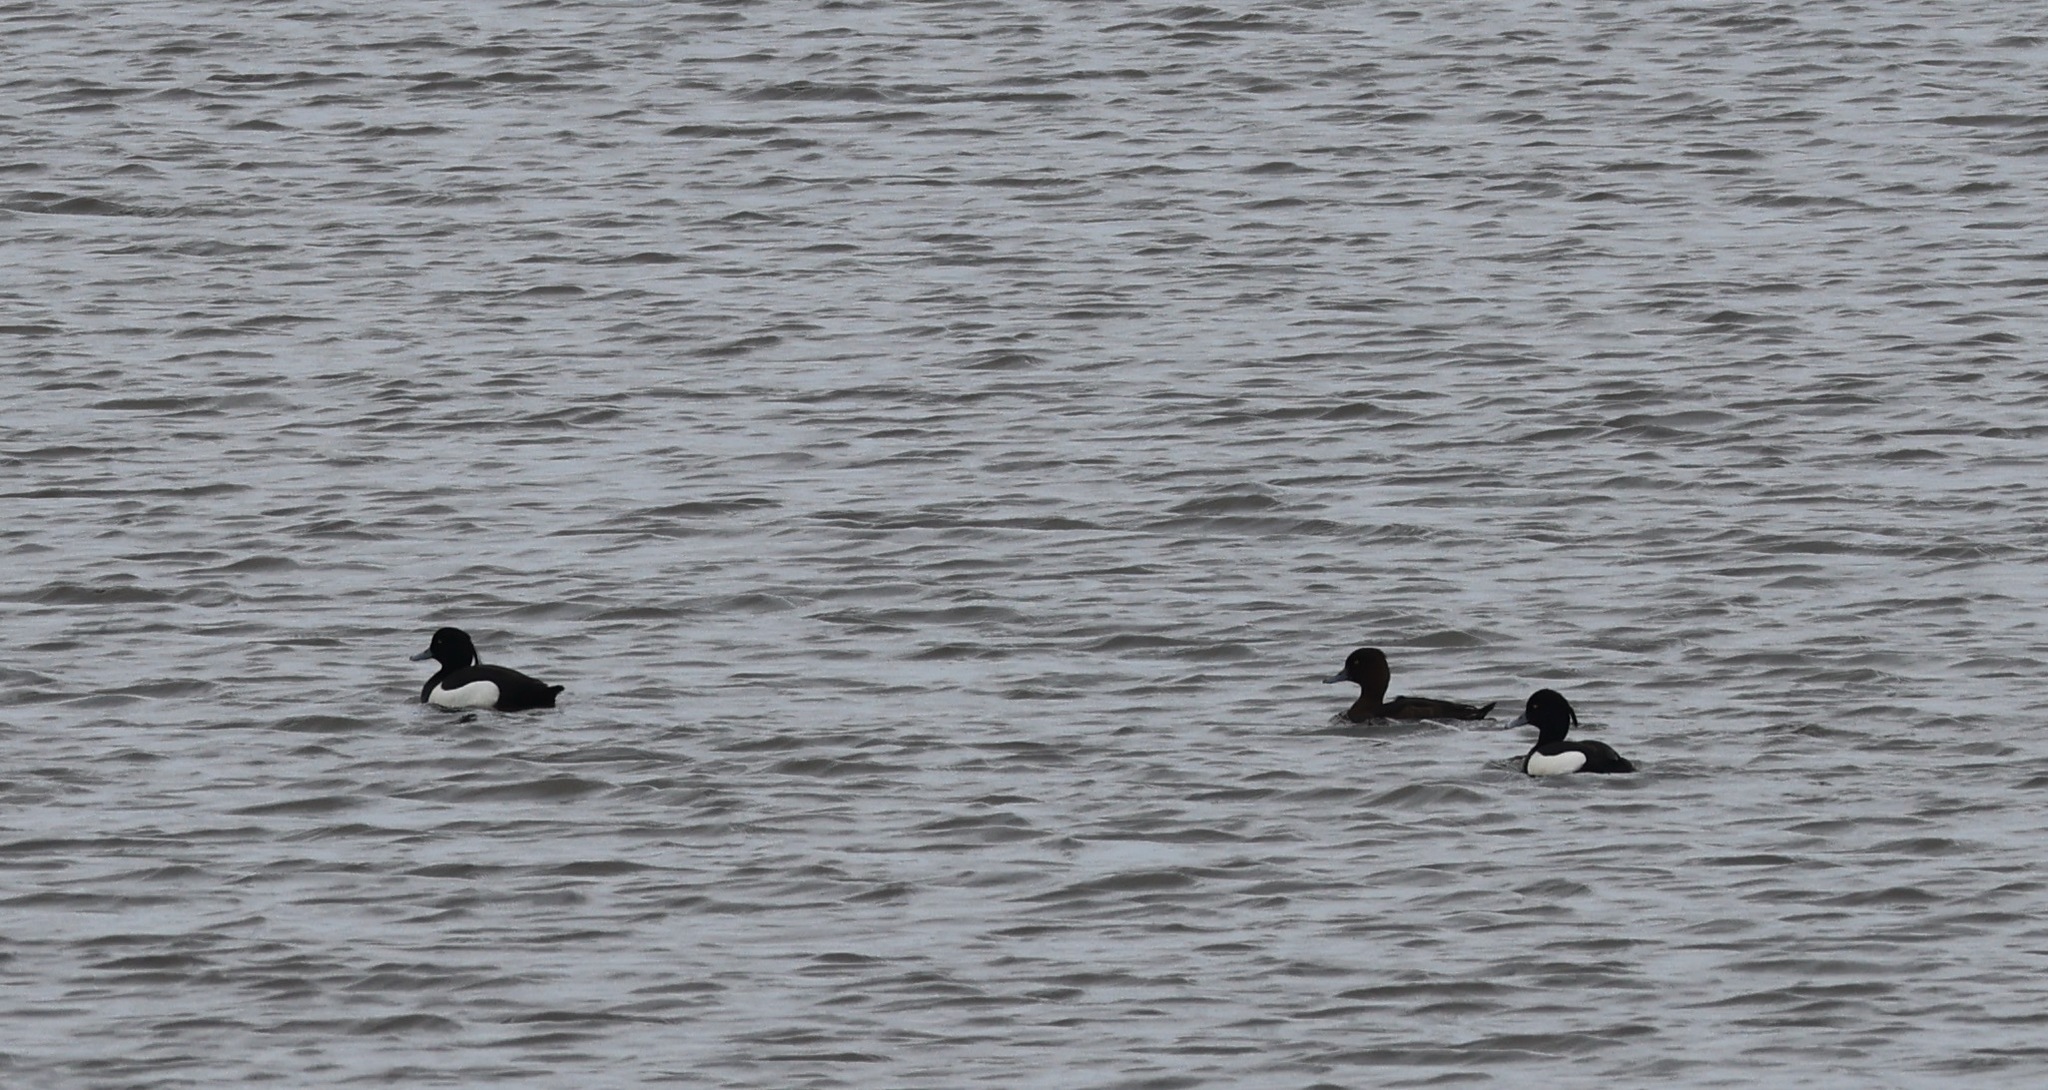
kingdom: Animalia
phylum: Chordata
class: Aves
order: Anseriformes
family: Anatidae
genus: Aythya
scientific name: Aythya fuligula
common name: Tufted duck
